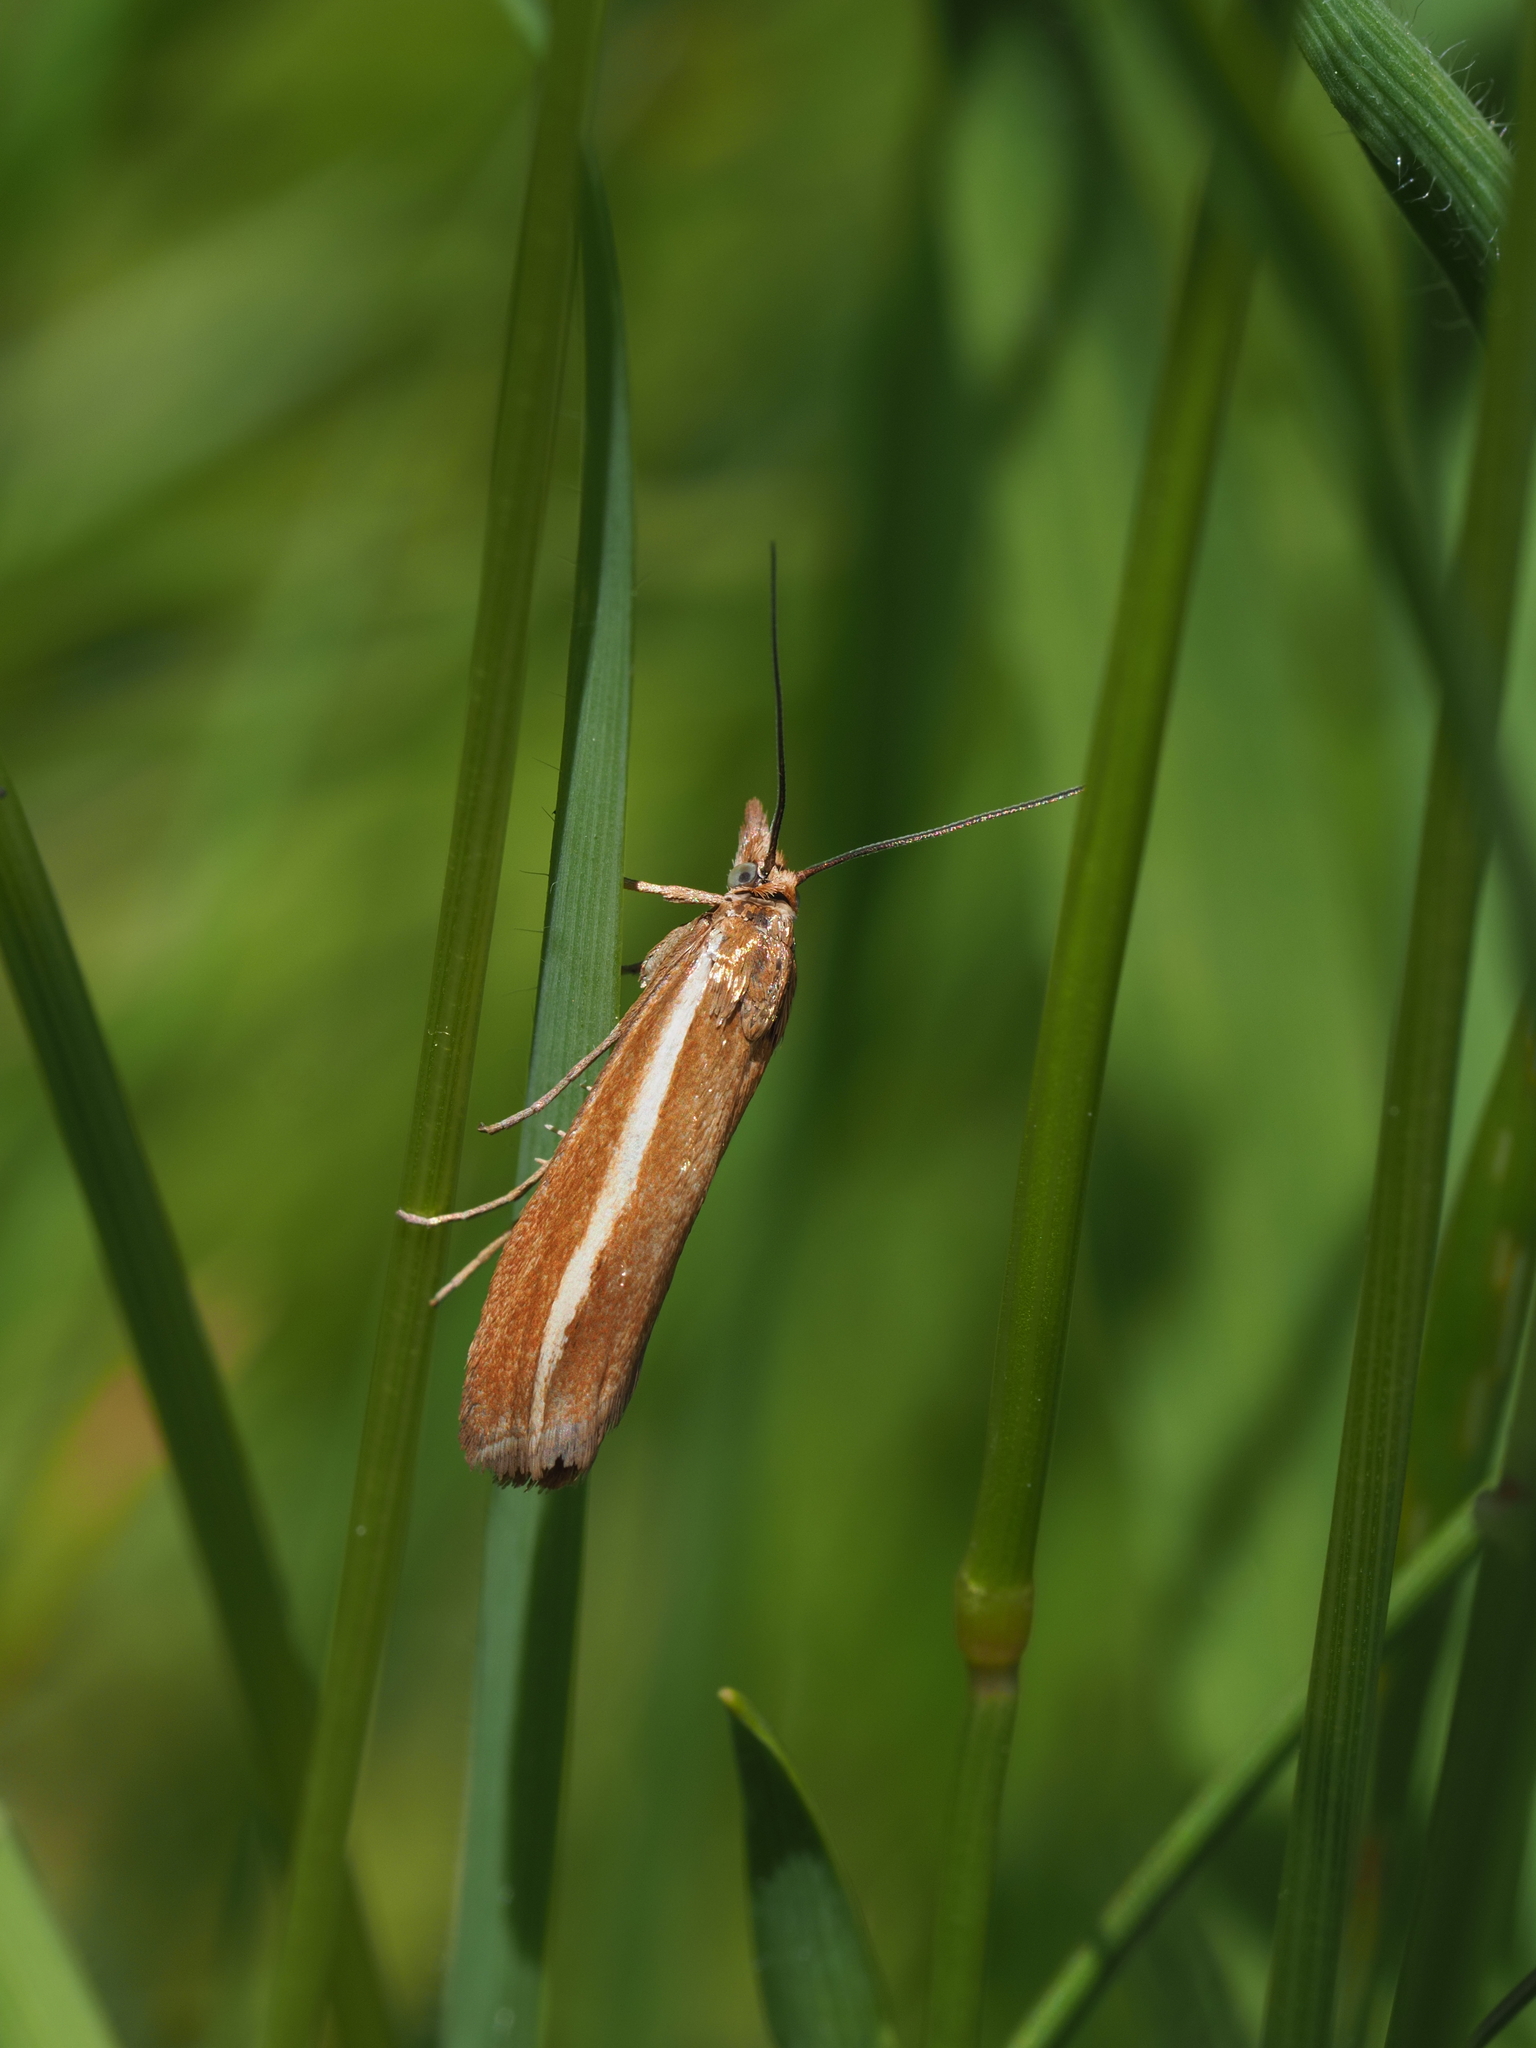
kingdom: Animalia
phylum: Arthropoda
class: Insecta
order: Lepidoptera
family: Crambidae
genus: Orocrambus
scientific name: Orocrambus aethonellus
